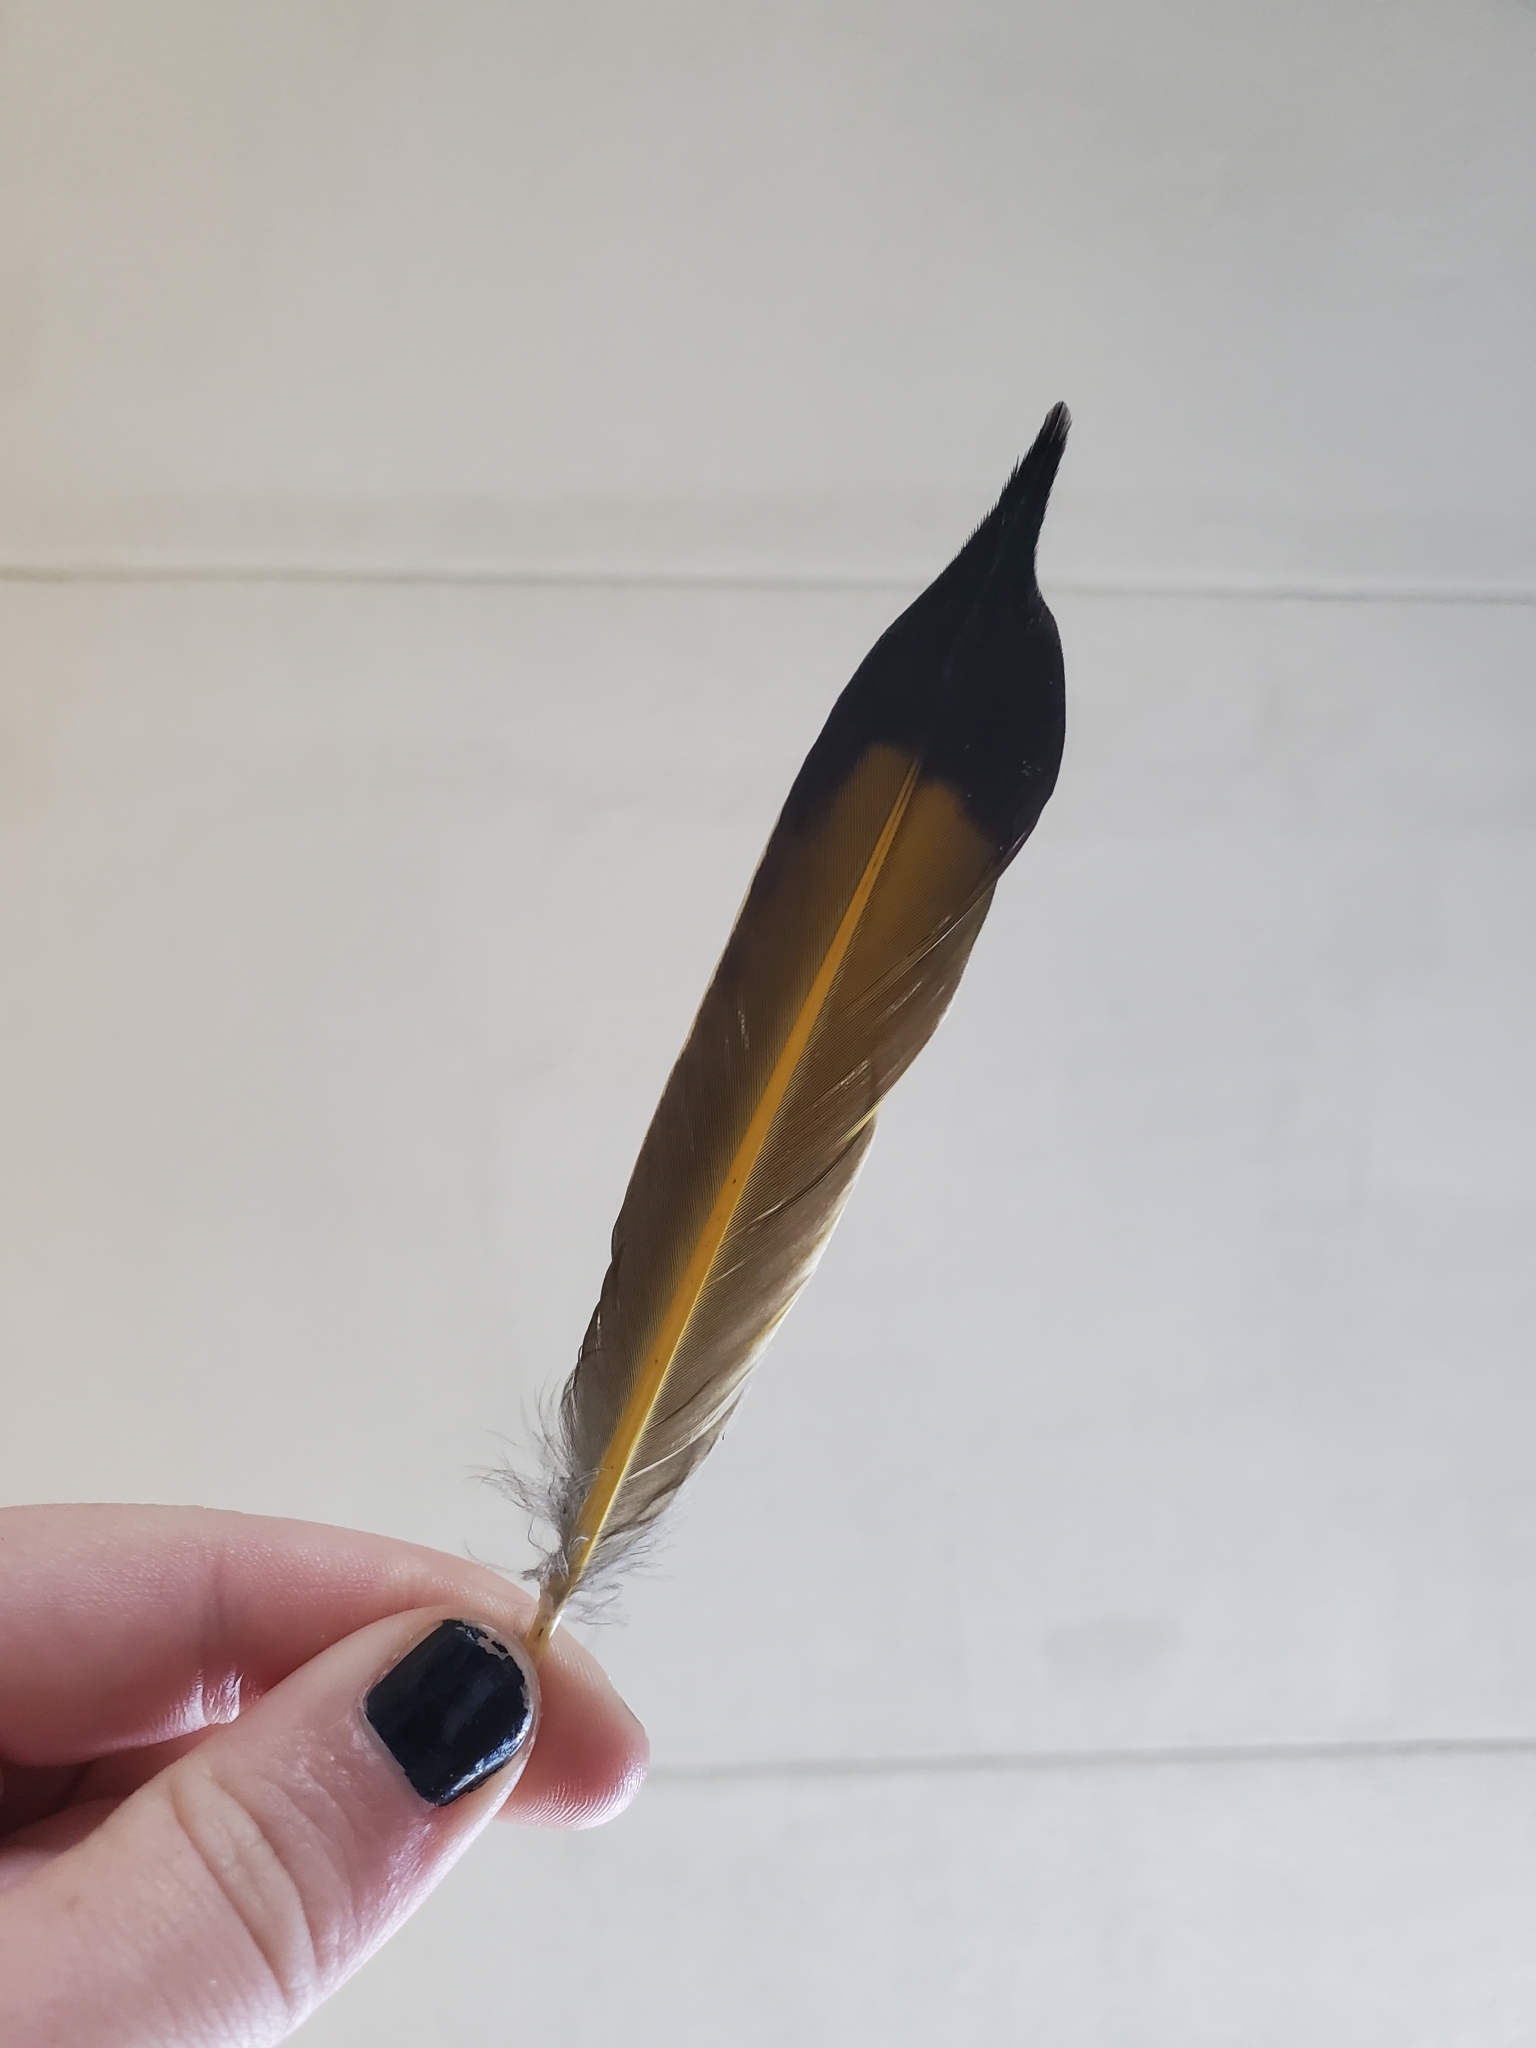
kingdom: Animalia
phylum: Chordata
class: Aves
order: Piciformes
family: Picidae
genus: Colaptes
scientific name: Colaptes auratus
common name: Northern flicker
